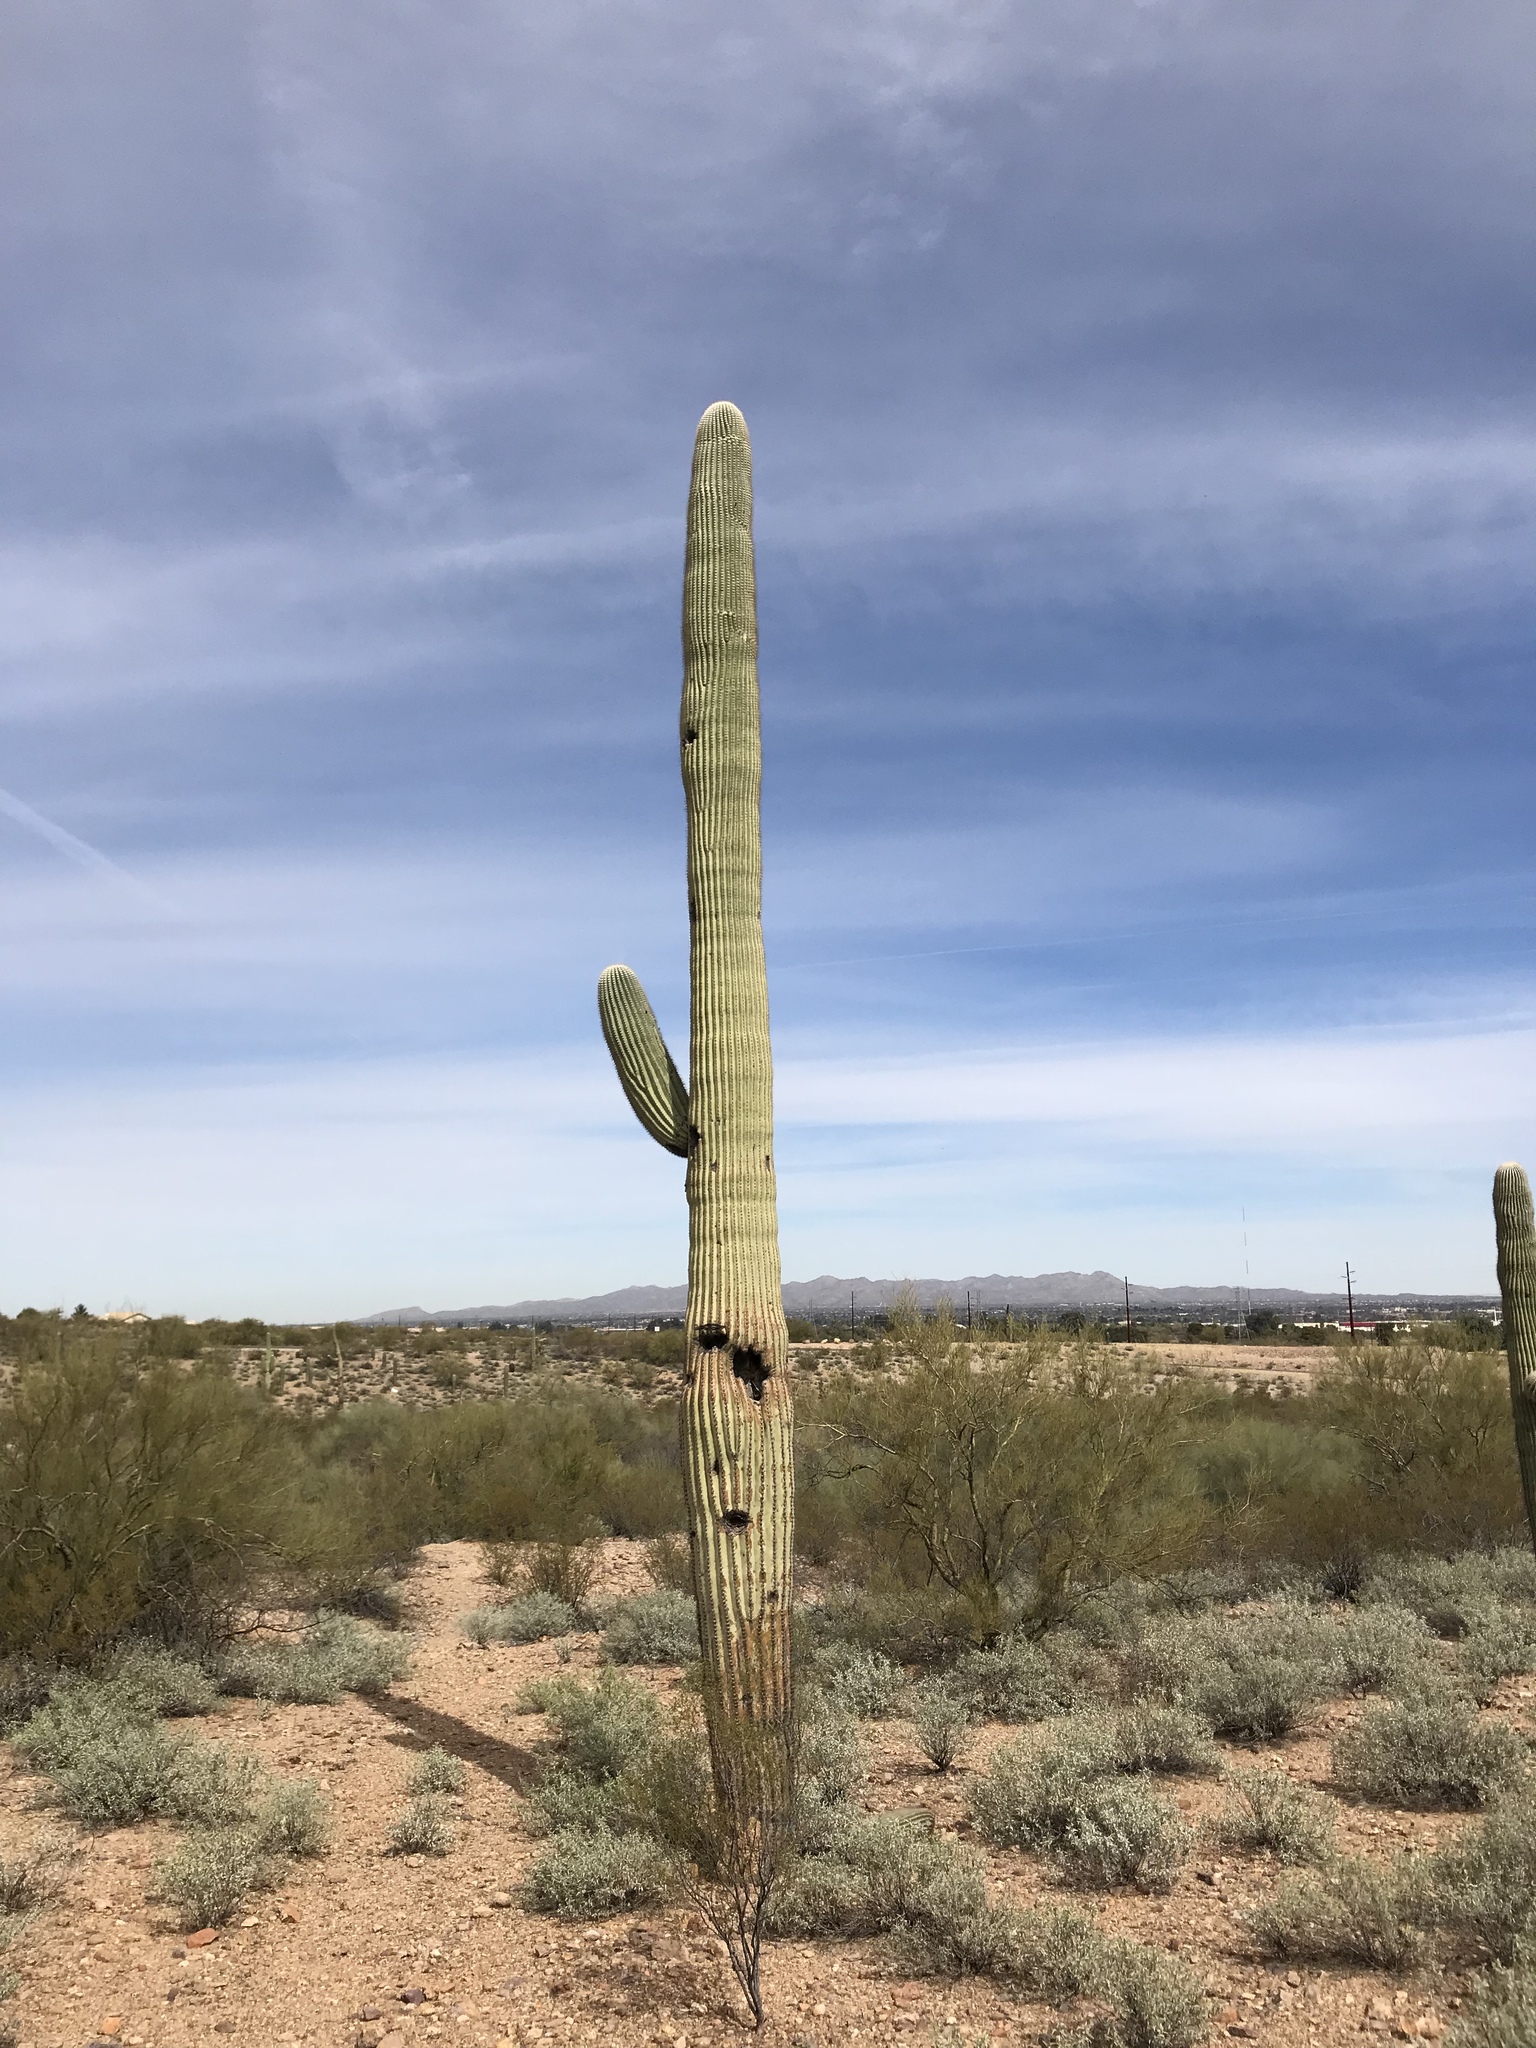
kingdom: Plantae
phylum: Tracheophyta
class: Magnoliopsida
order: Caryophyllales
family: Cactaceae
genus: Carnegiea
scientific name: Carnegiea gigantea
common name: Saguaro
